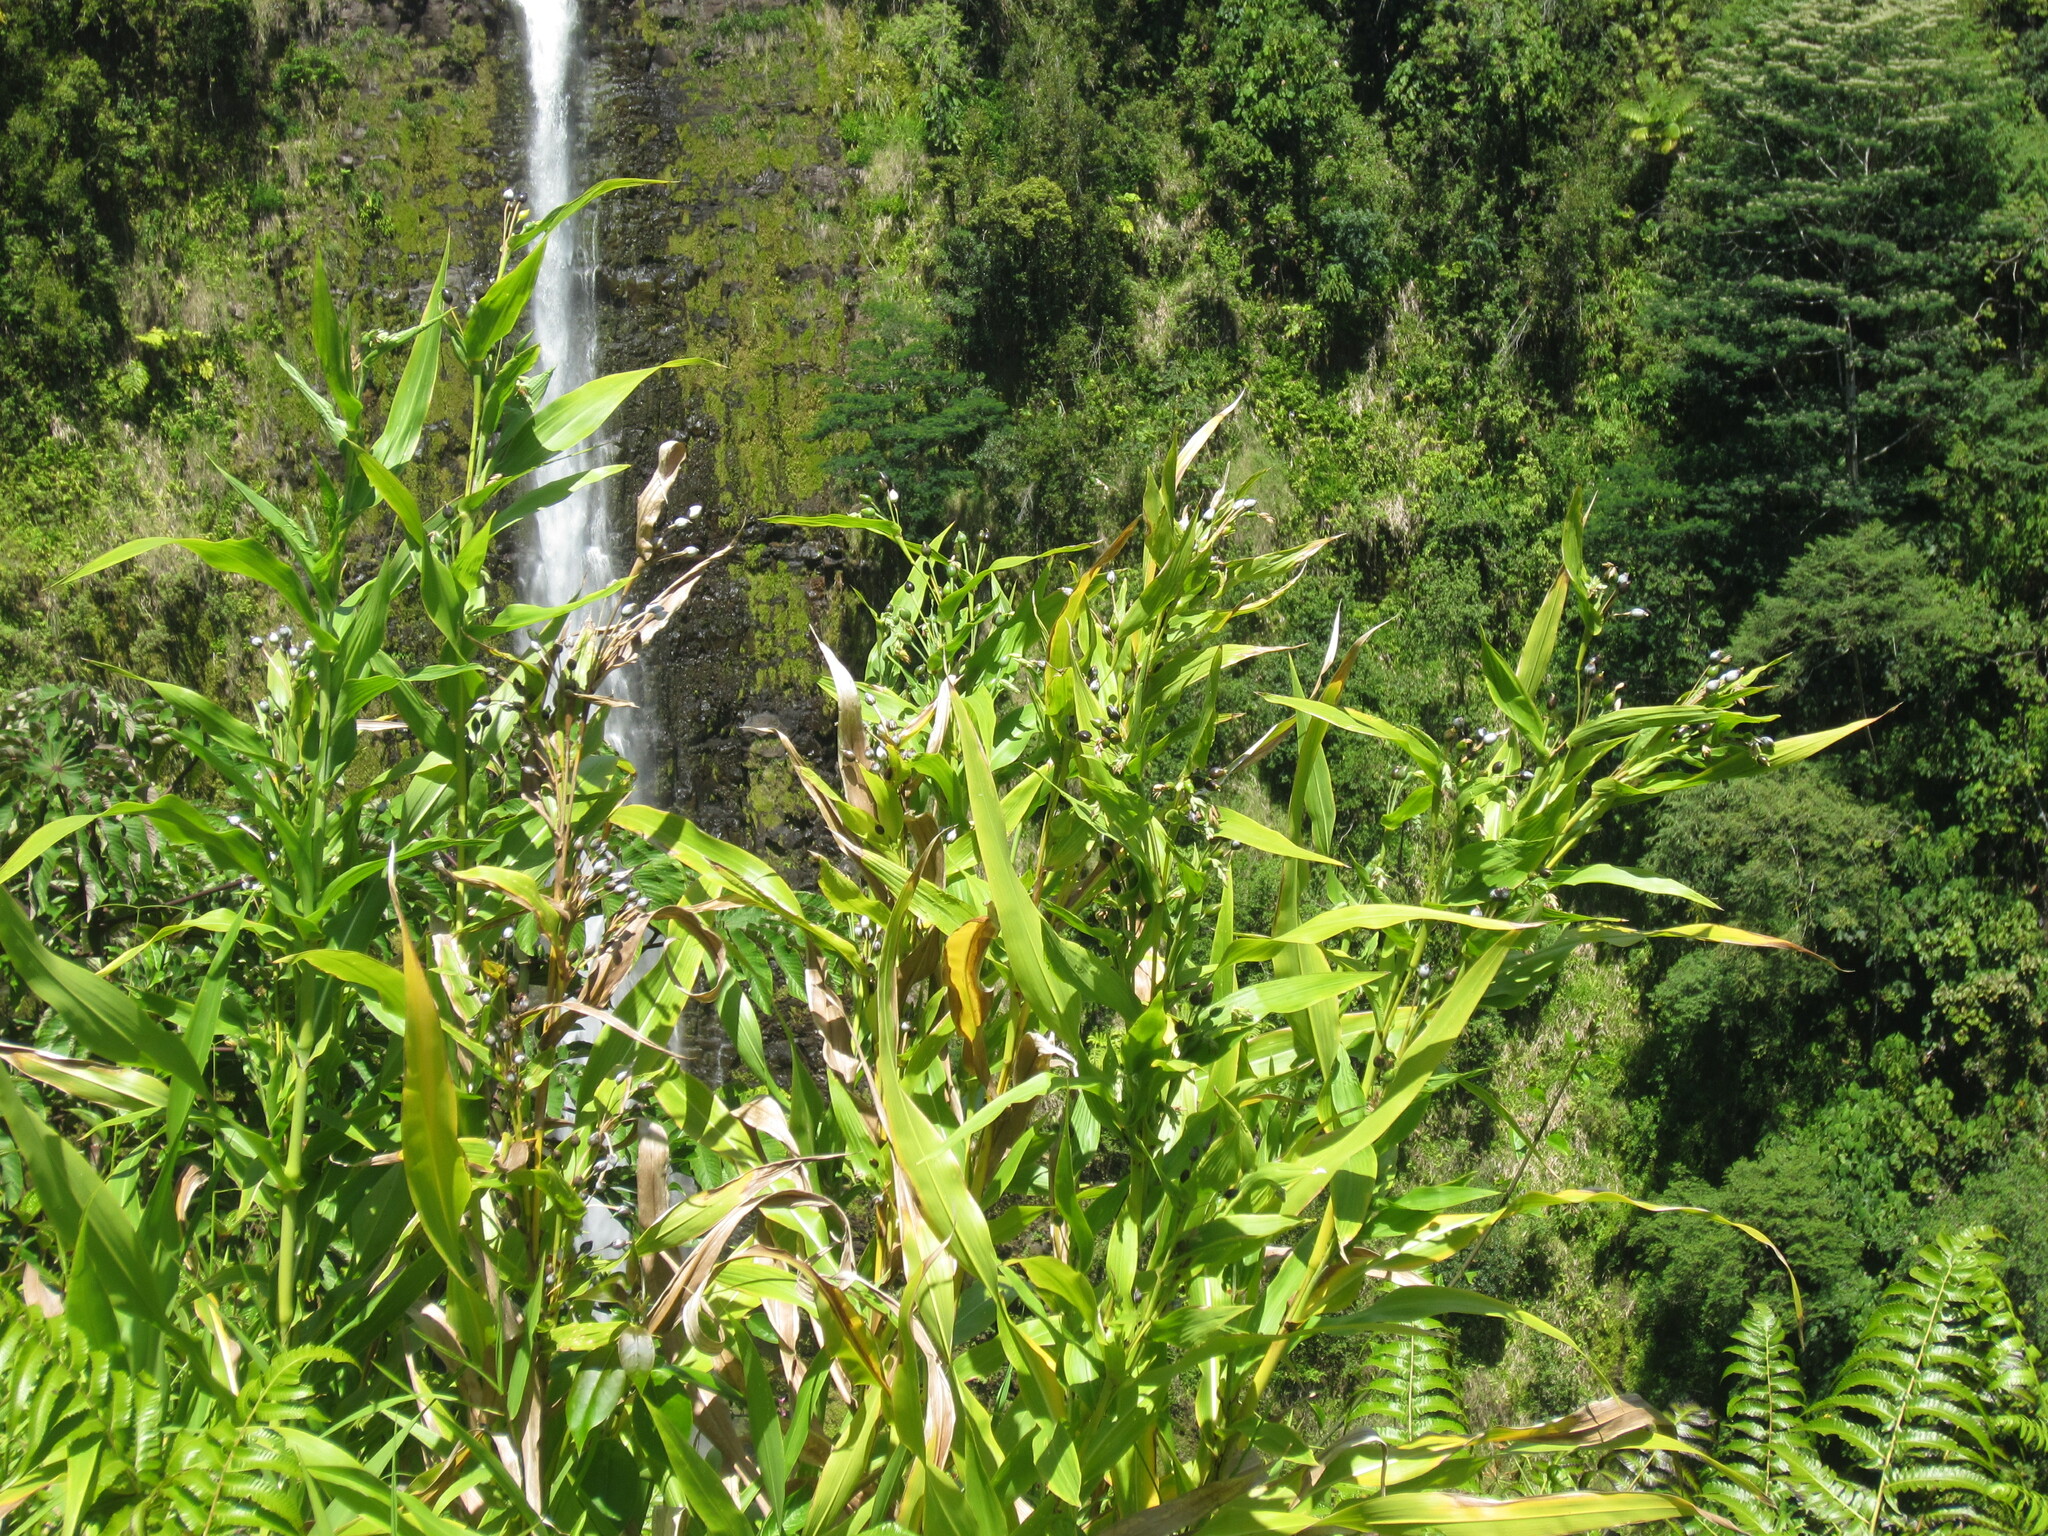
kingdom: Plantae
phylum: Tracheophyta
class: Liliopsida
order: Poales
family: Poaceae
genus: Coix
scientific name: Coix lacryma-jobi
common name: Job's tears
